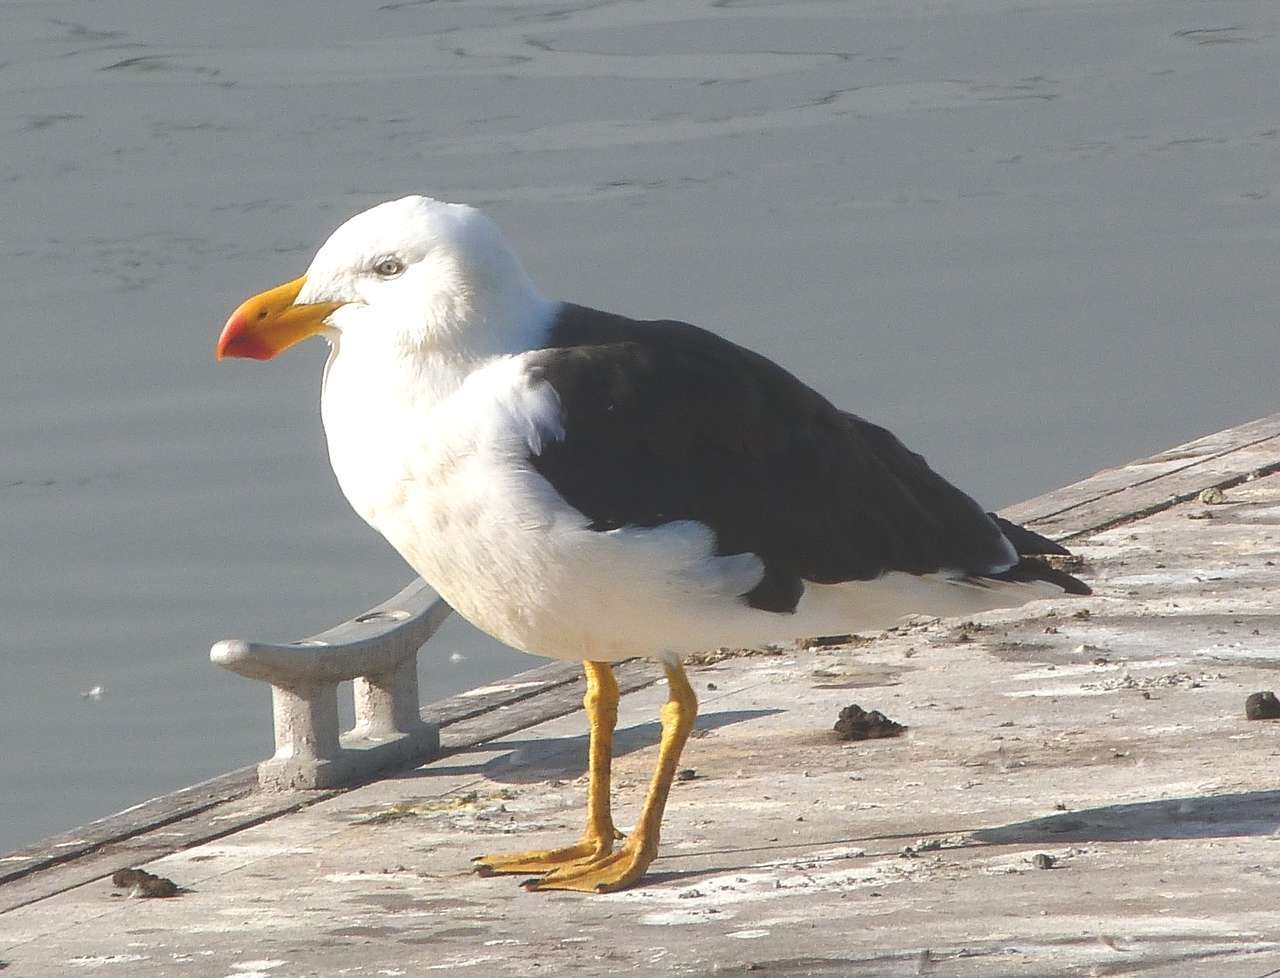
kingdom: Animalia
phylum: Chordata
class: Aves
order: Charadriiformes
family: Laridae
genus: Larus
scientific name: Larus pacificus
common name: Pacific gull
